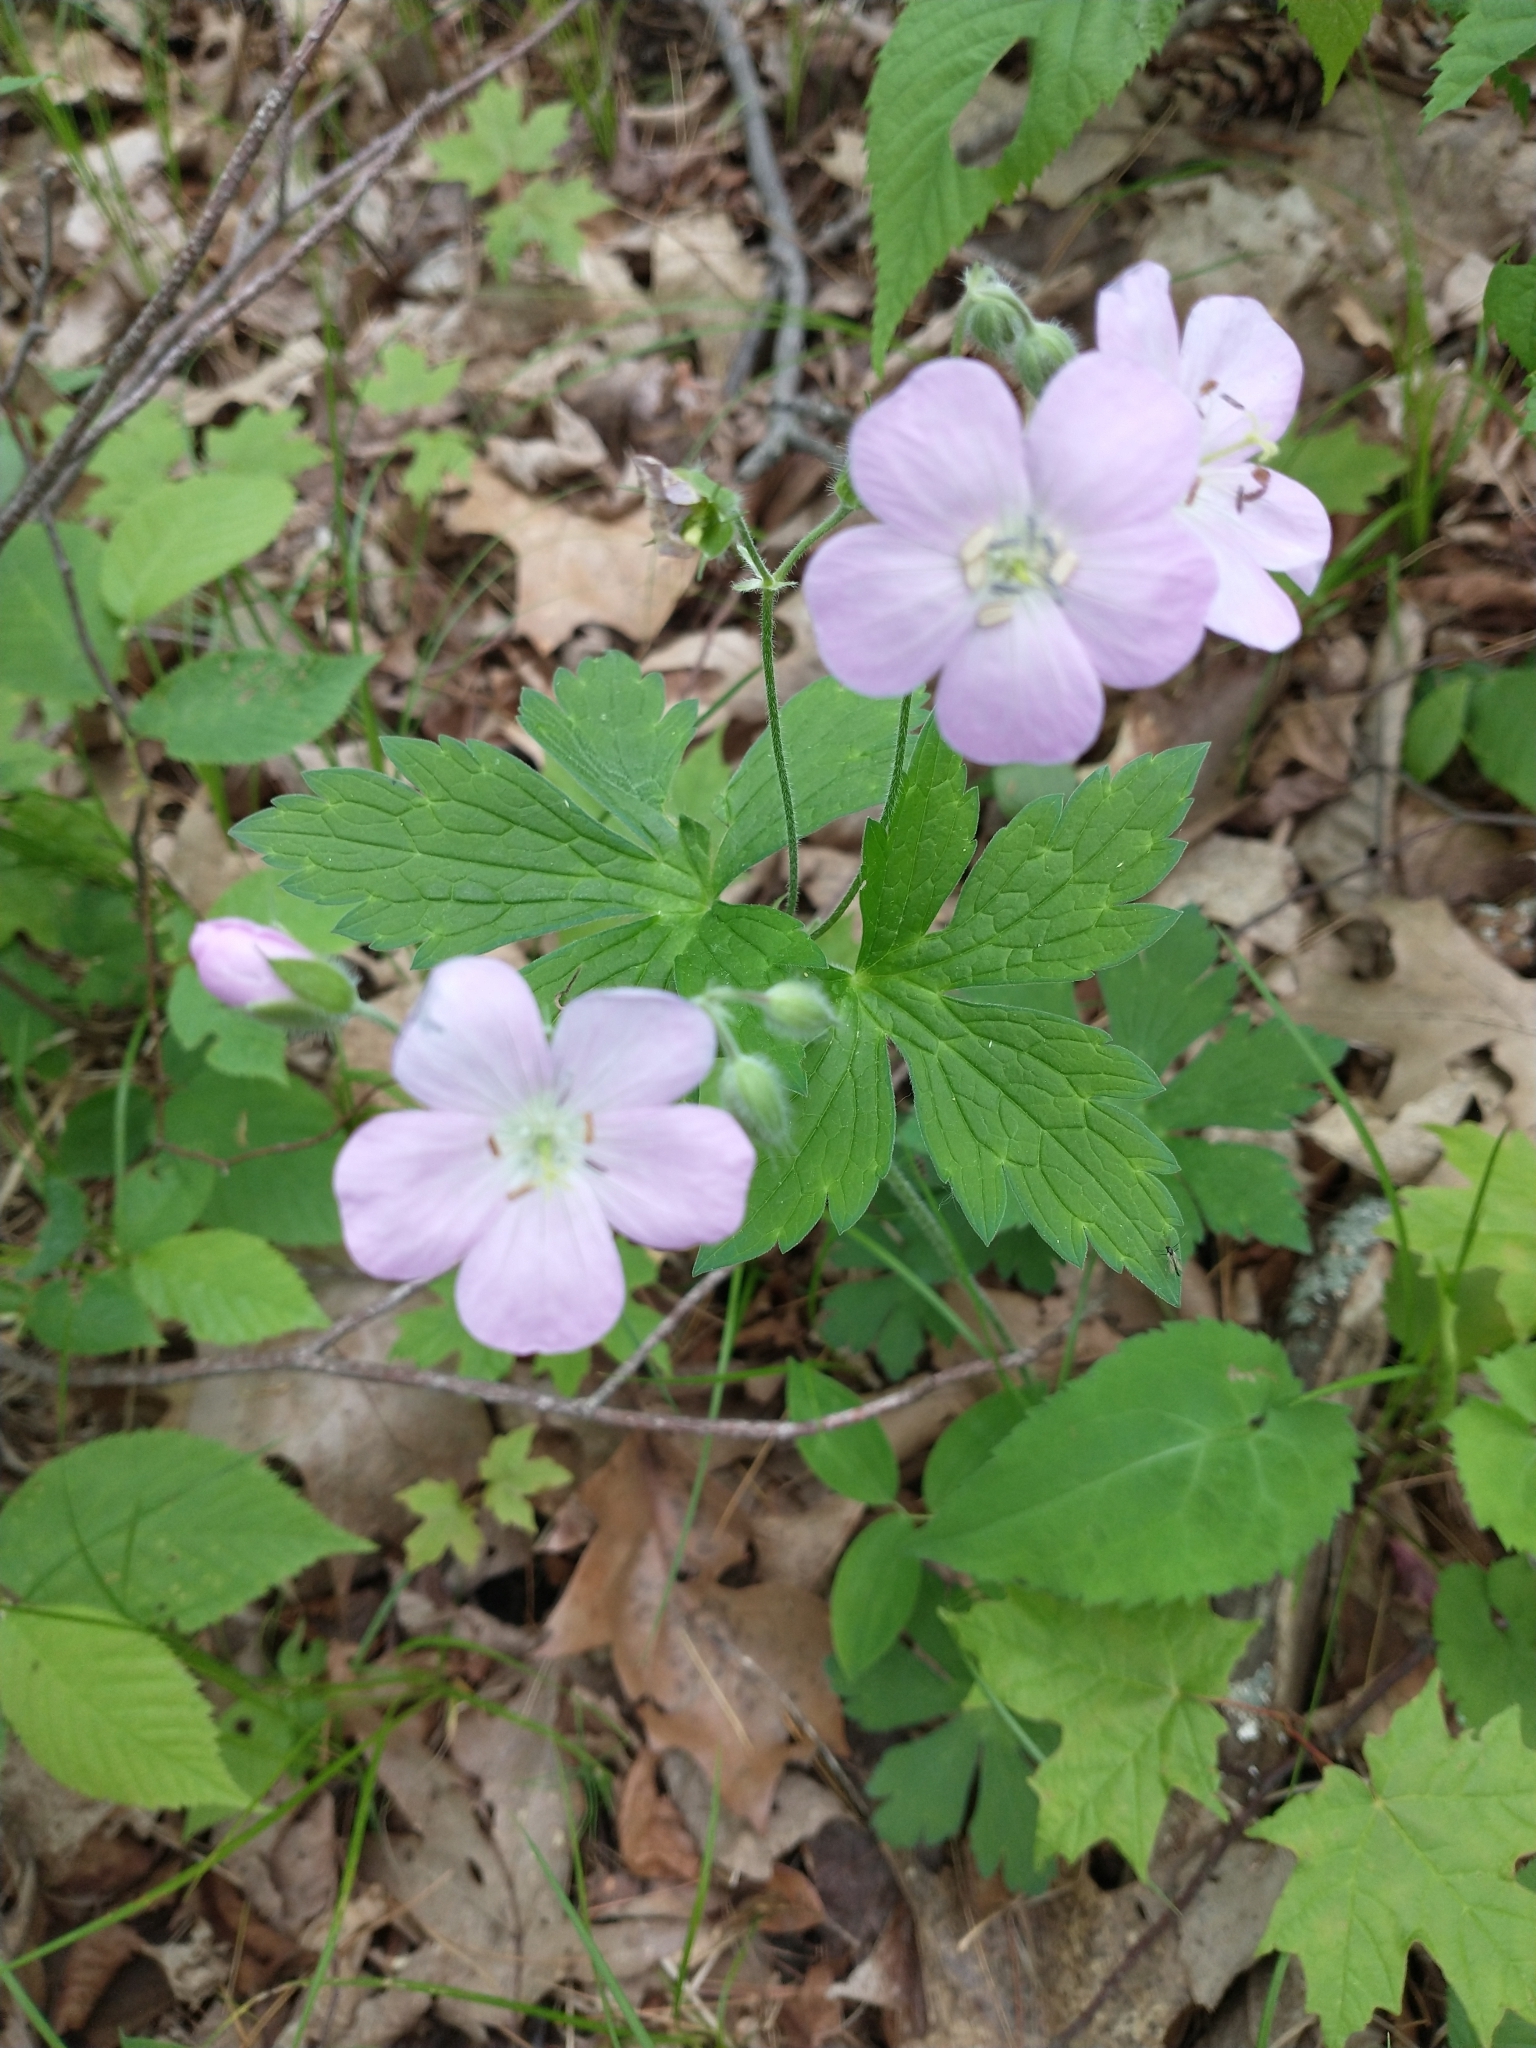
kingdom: Plantae
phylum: Tracheophyta
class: Magnoliopsida
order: Geraniales
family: Geraniaceae
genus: Geranium
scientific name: Geranium maculatum
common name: Spotted geranium
